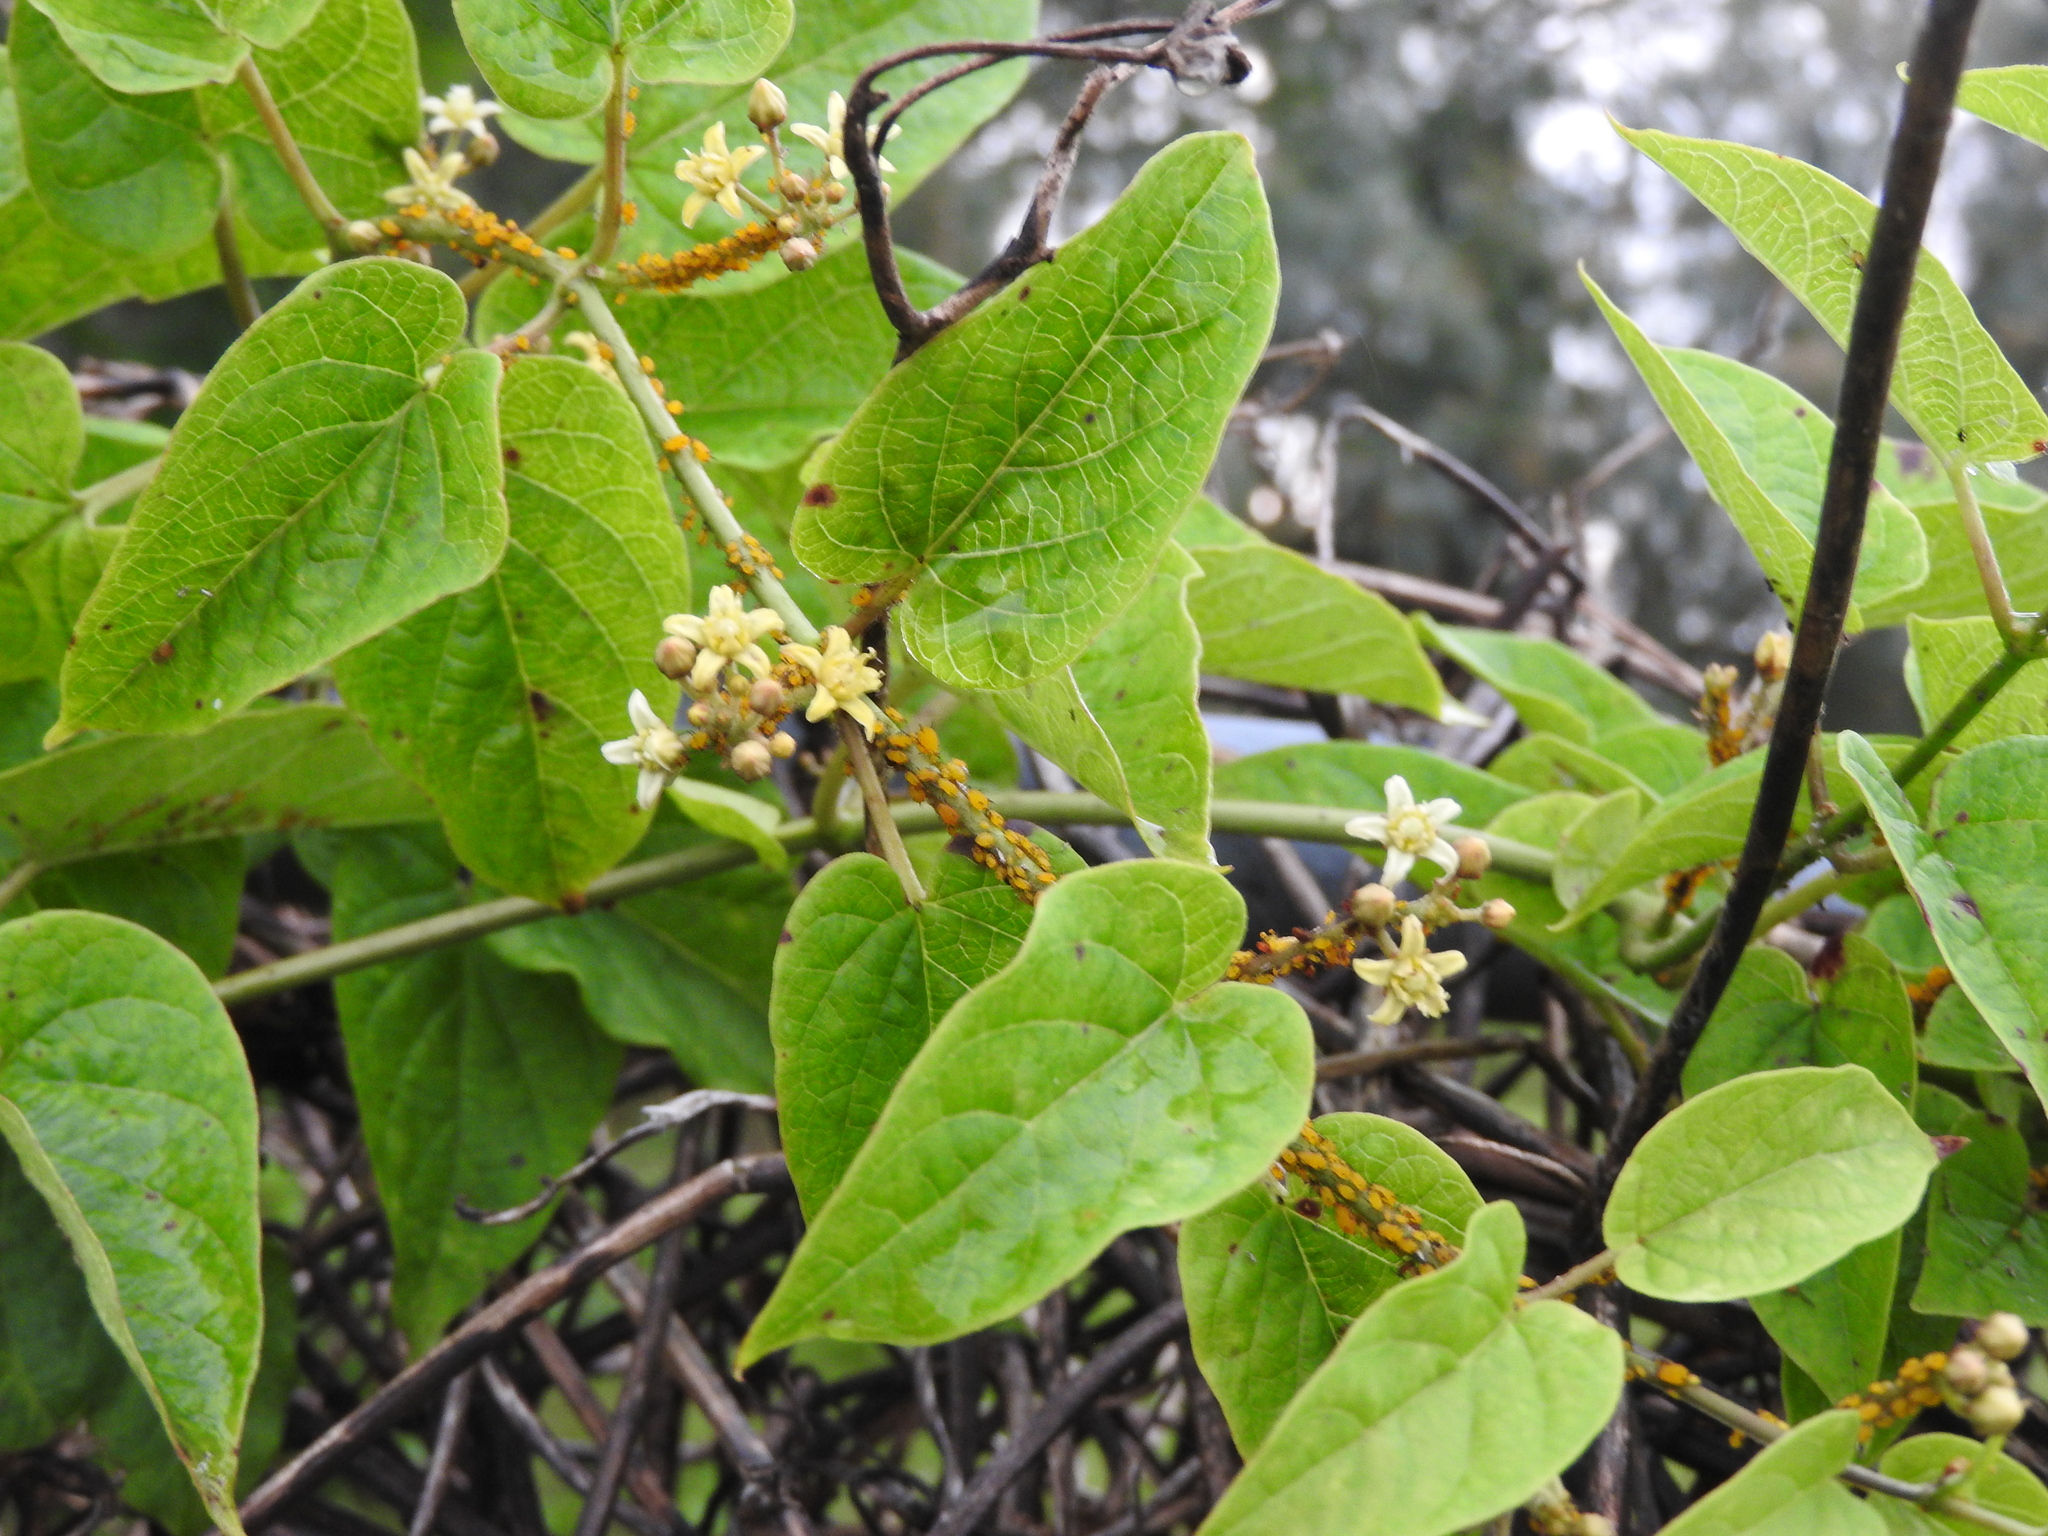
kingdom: Plantae
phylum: Tracheophyta
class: Magnoliopsida
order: Gentianales
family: Apocynaceae
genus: Cynanchum
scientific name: Cynanchum foetidum
